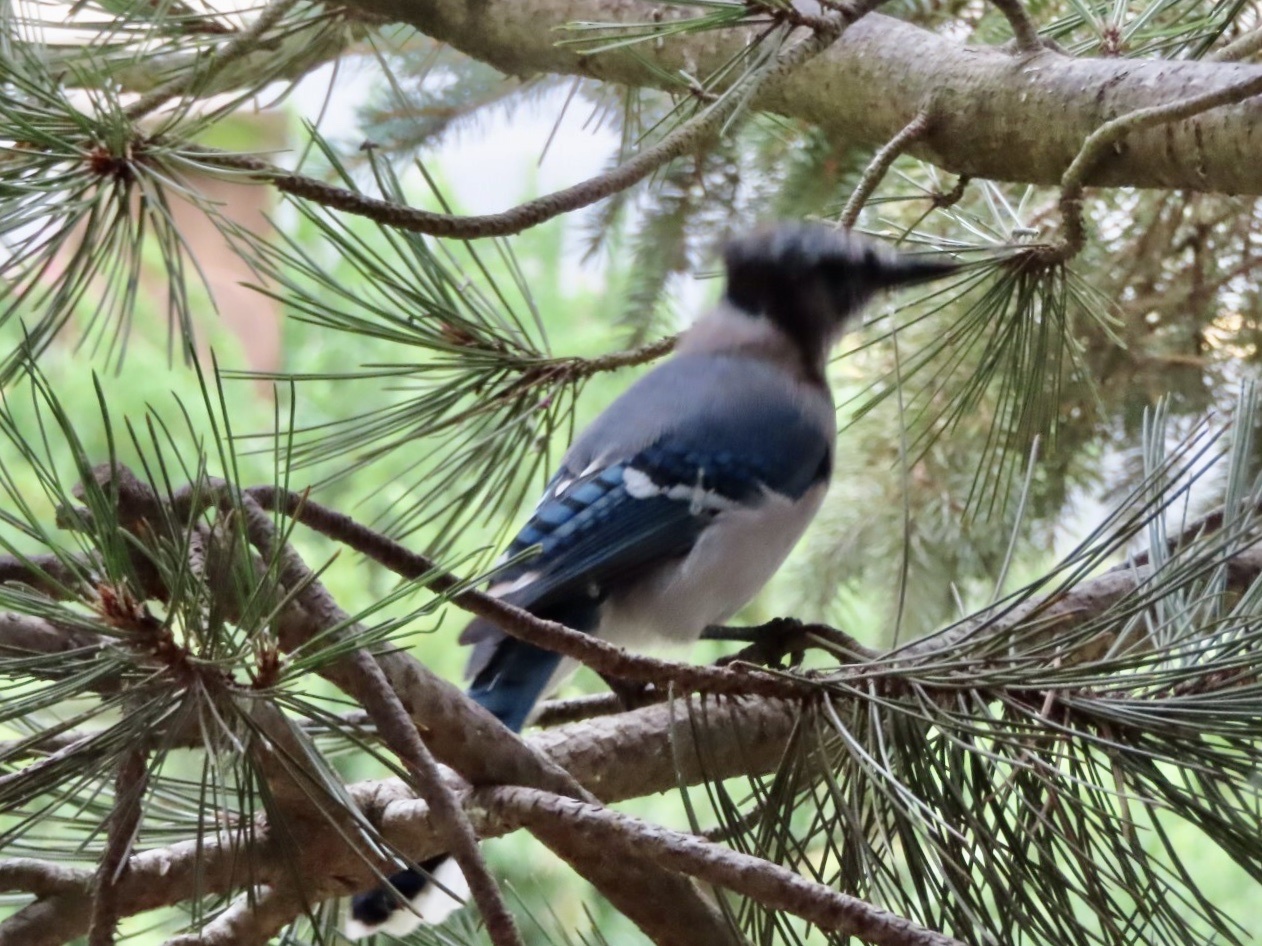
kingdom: Animalia
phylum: Chordata
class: Aves
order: Passeriformes
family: Corvidae
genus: Cyanocitta
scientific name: Cyanocitta cristata
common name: Blue jay
